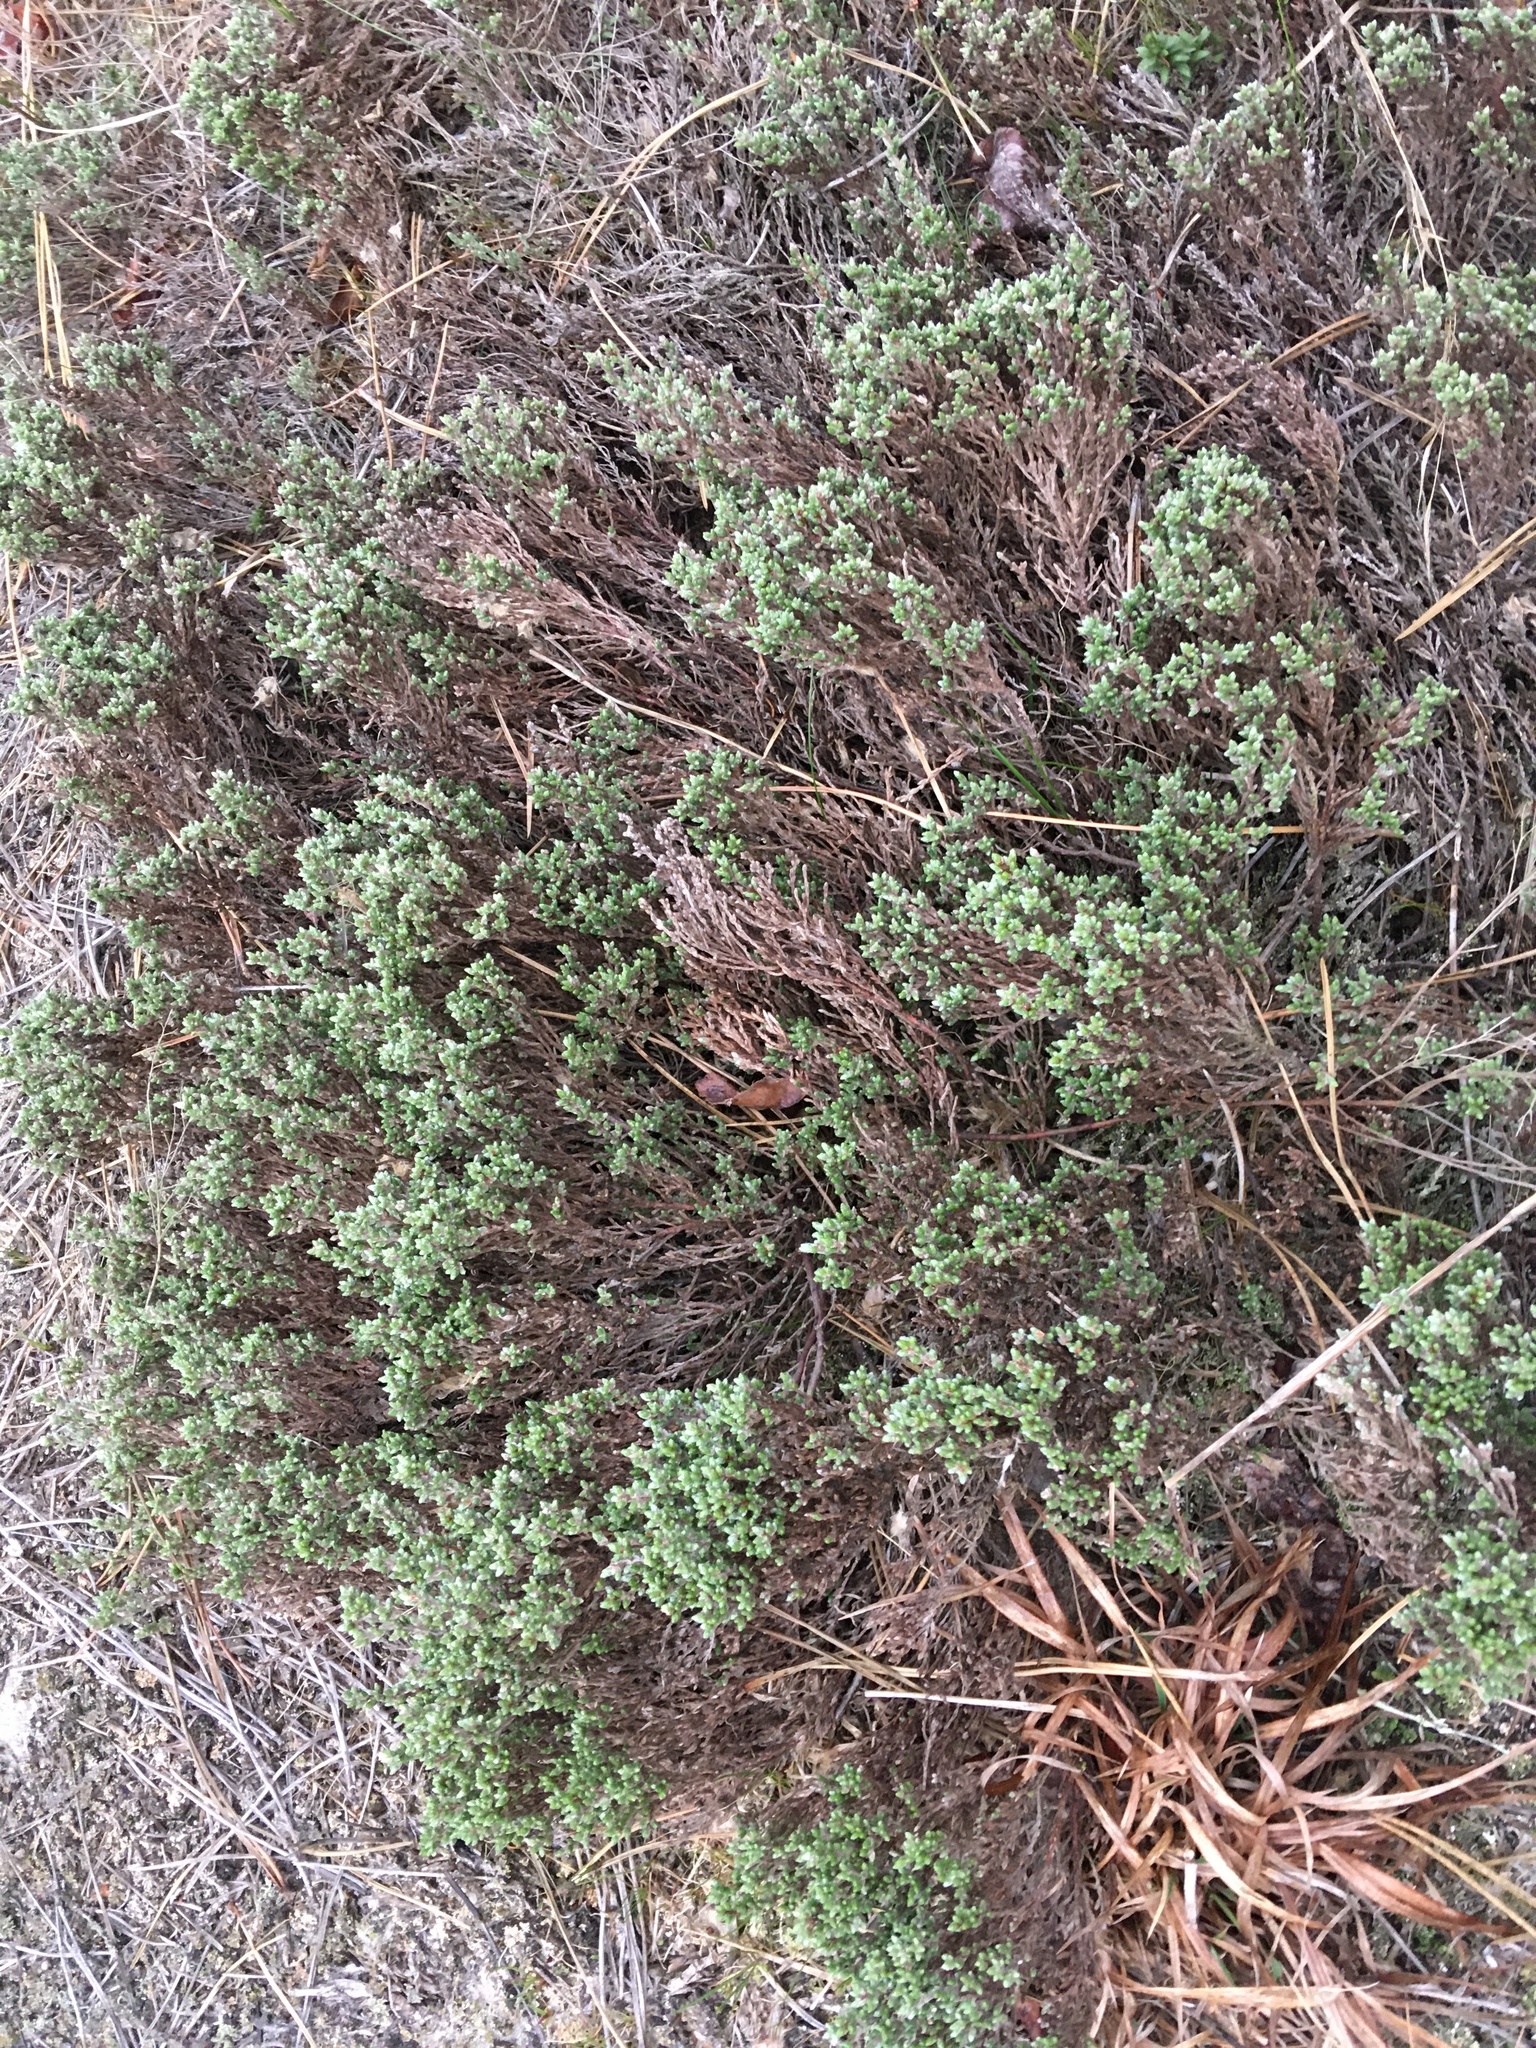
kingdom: Plantae
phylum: Tracheophyta
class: Magnoliopsida
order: Malvales
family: Cistaceae
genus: Hudsonia
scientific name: Hudsonia tomentosa
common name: Beach-heath
